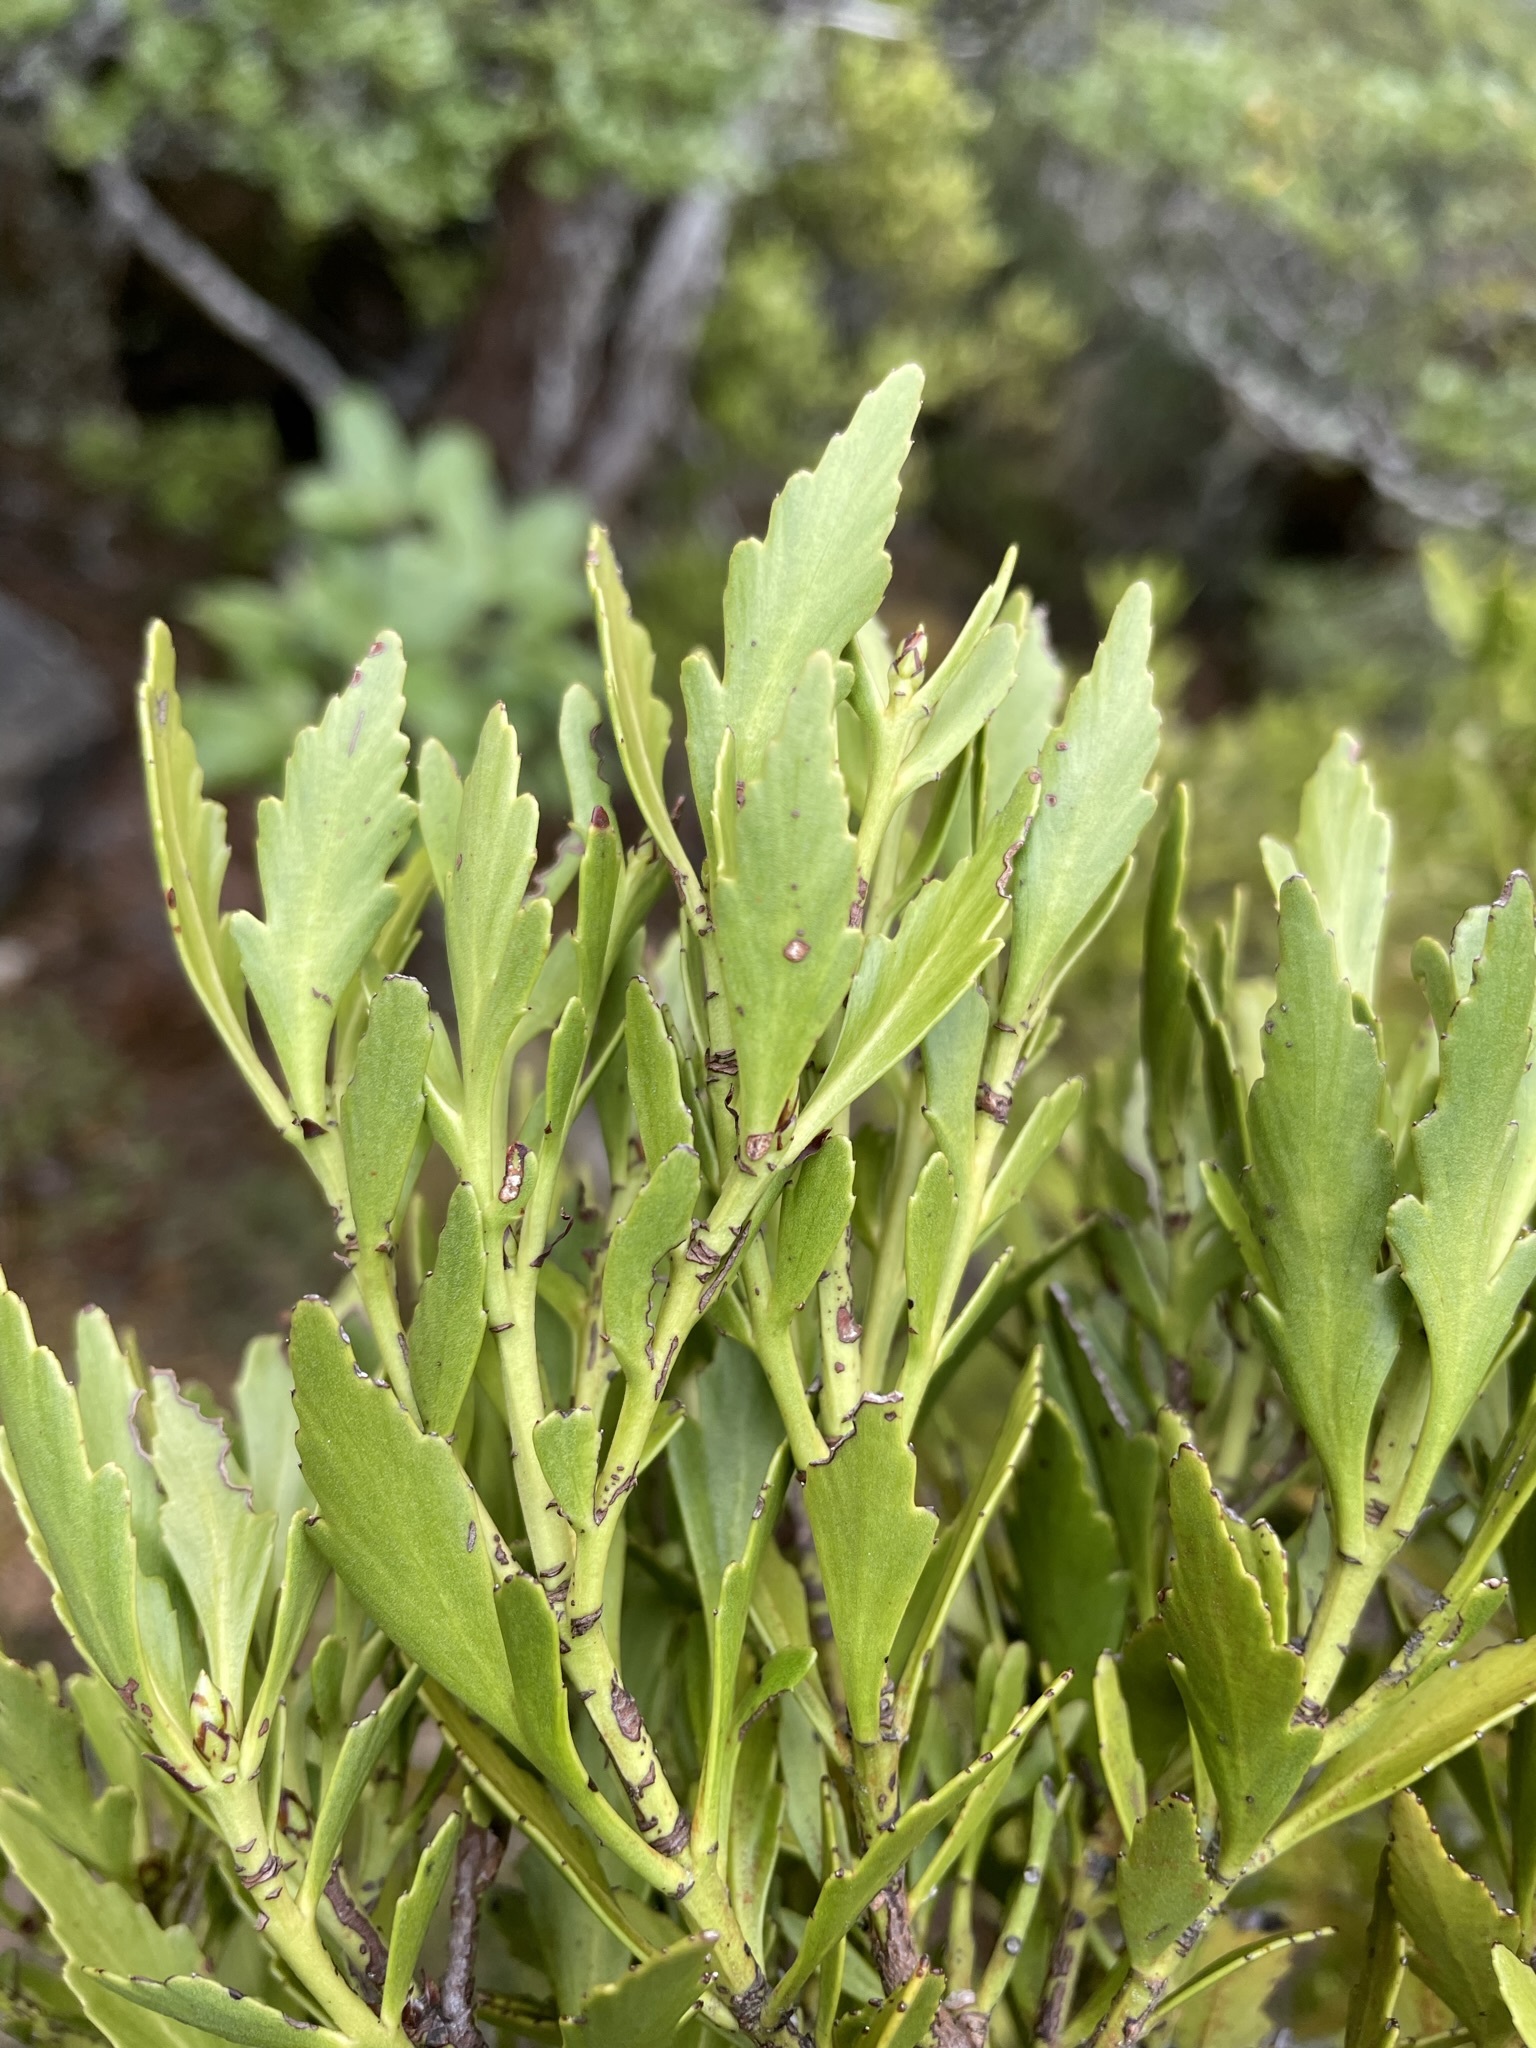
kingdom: Plantae
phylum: Tracheophyta
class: Pinopsida
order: Pinales
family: Phyllocladaceae
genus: Phyllocladus
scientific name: Phyllocladus trichomanoides
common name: Celery pine
